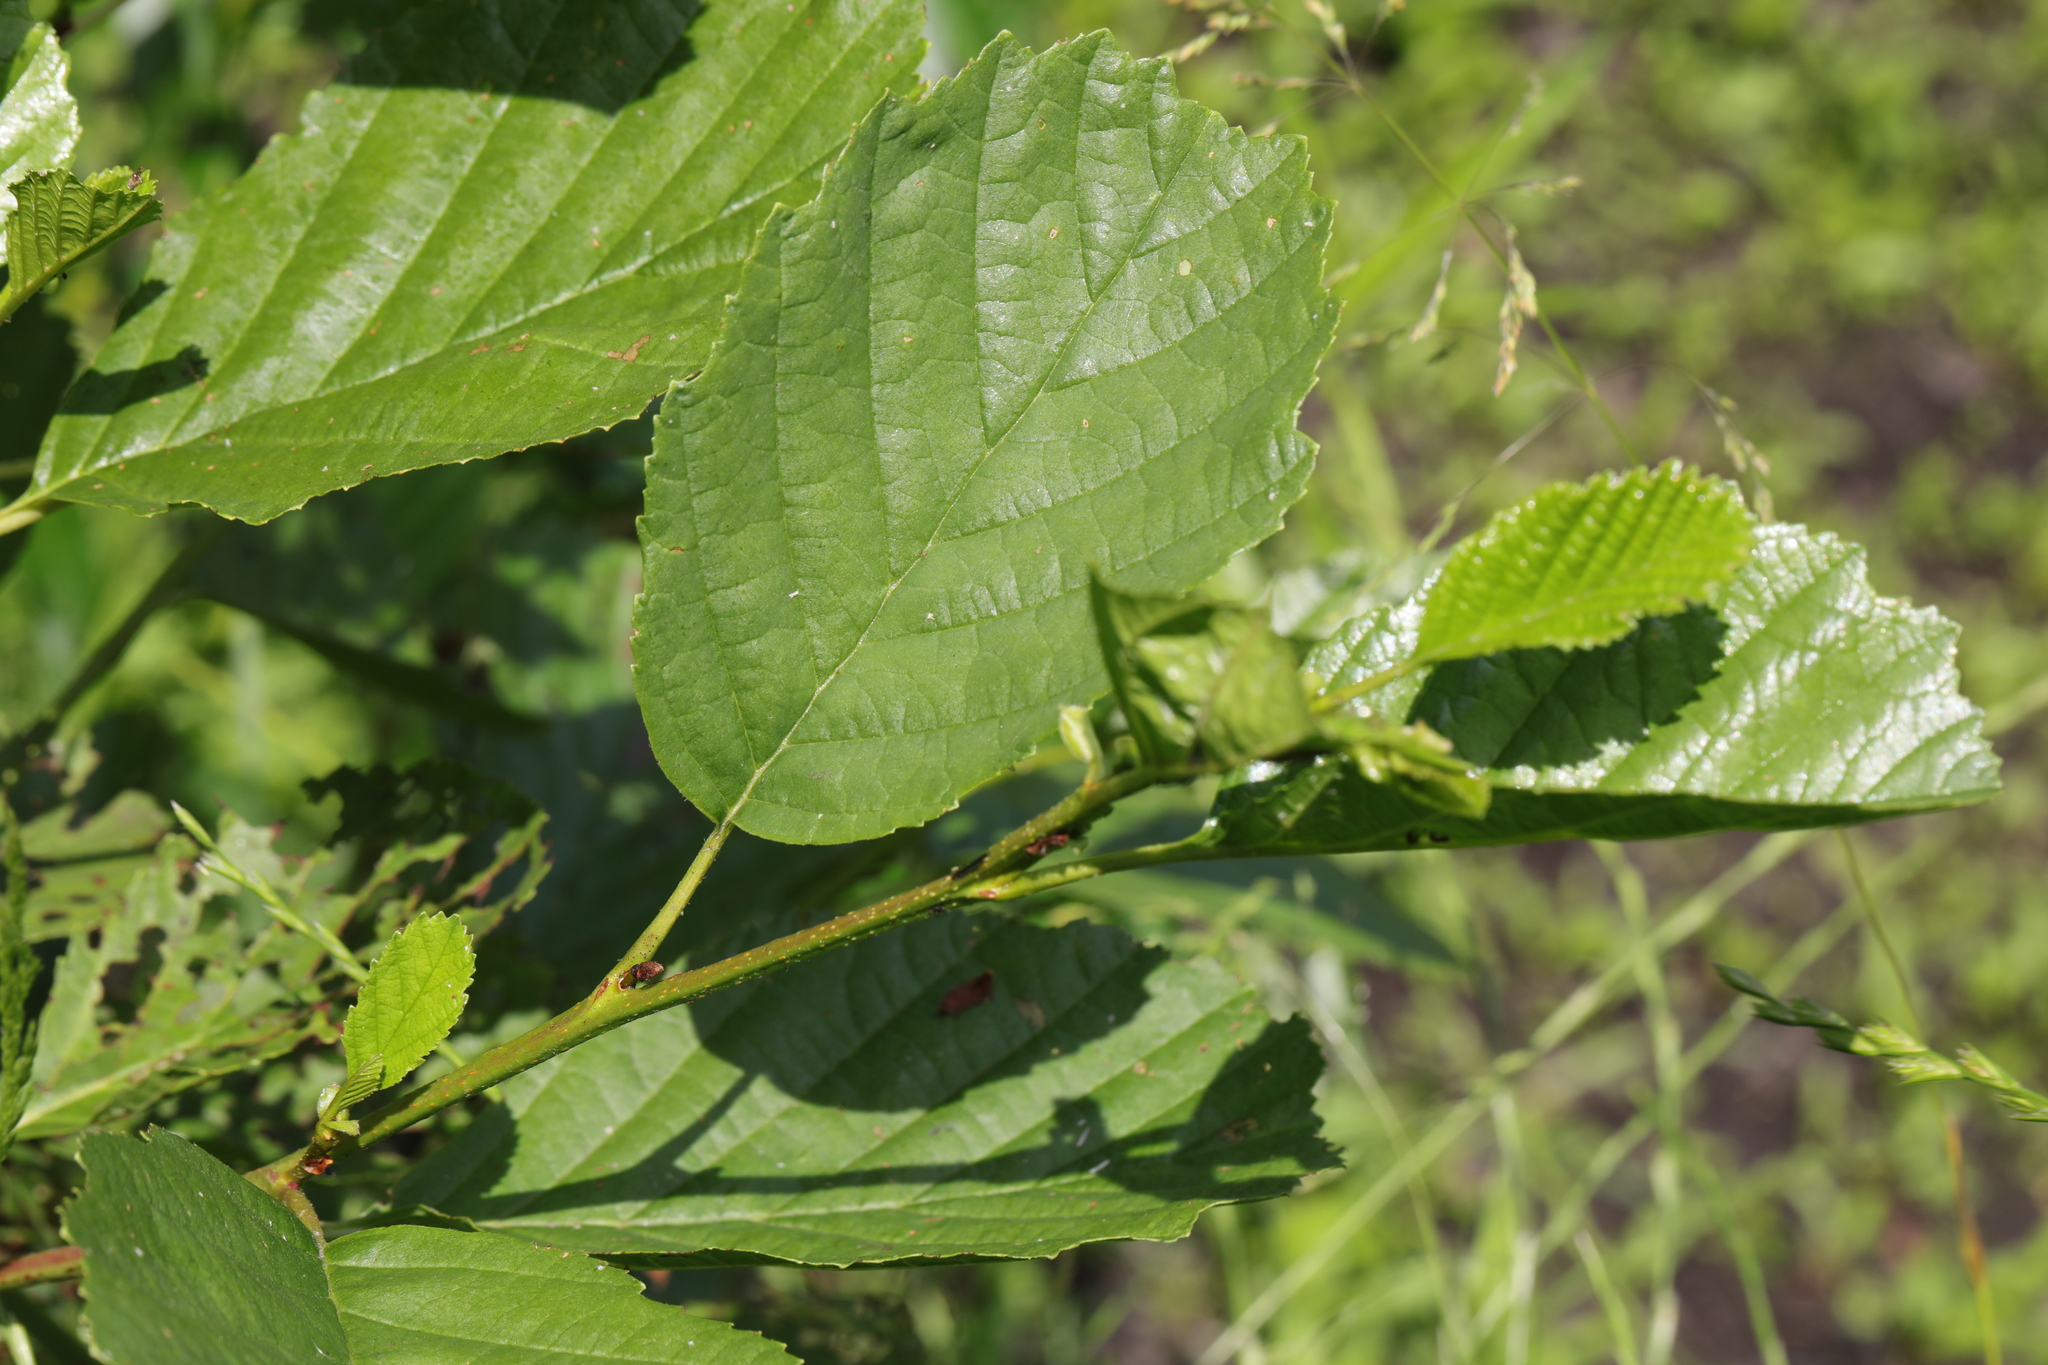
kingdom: Plantae
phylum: Tracheophyta
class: Magnoliopsida
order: Fagales
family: Betulaceae
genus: Alnus
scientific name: Alnus glutinosa
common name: Black alder
